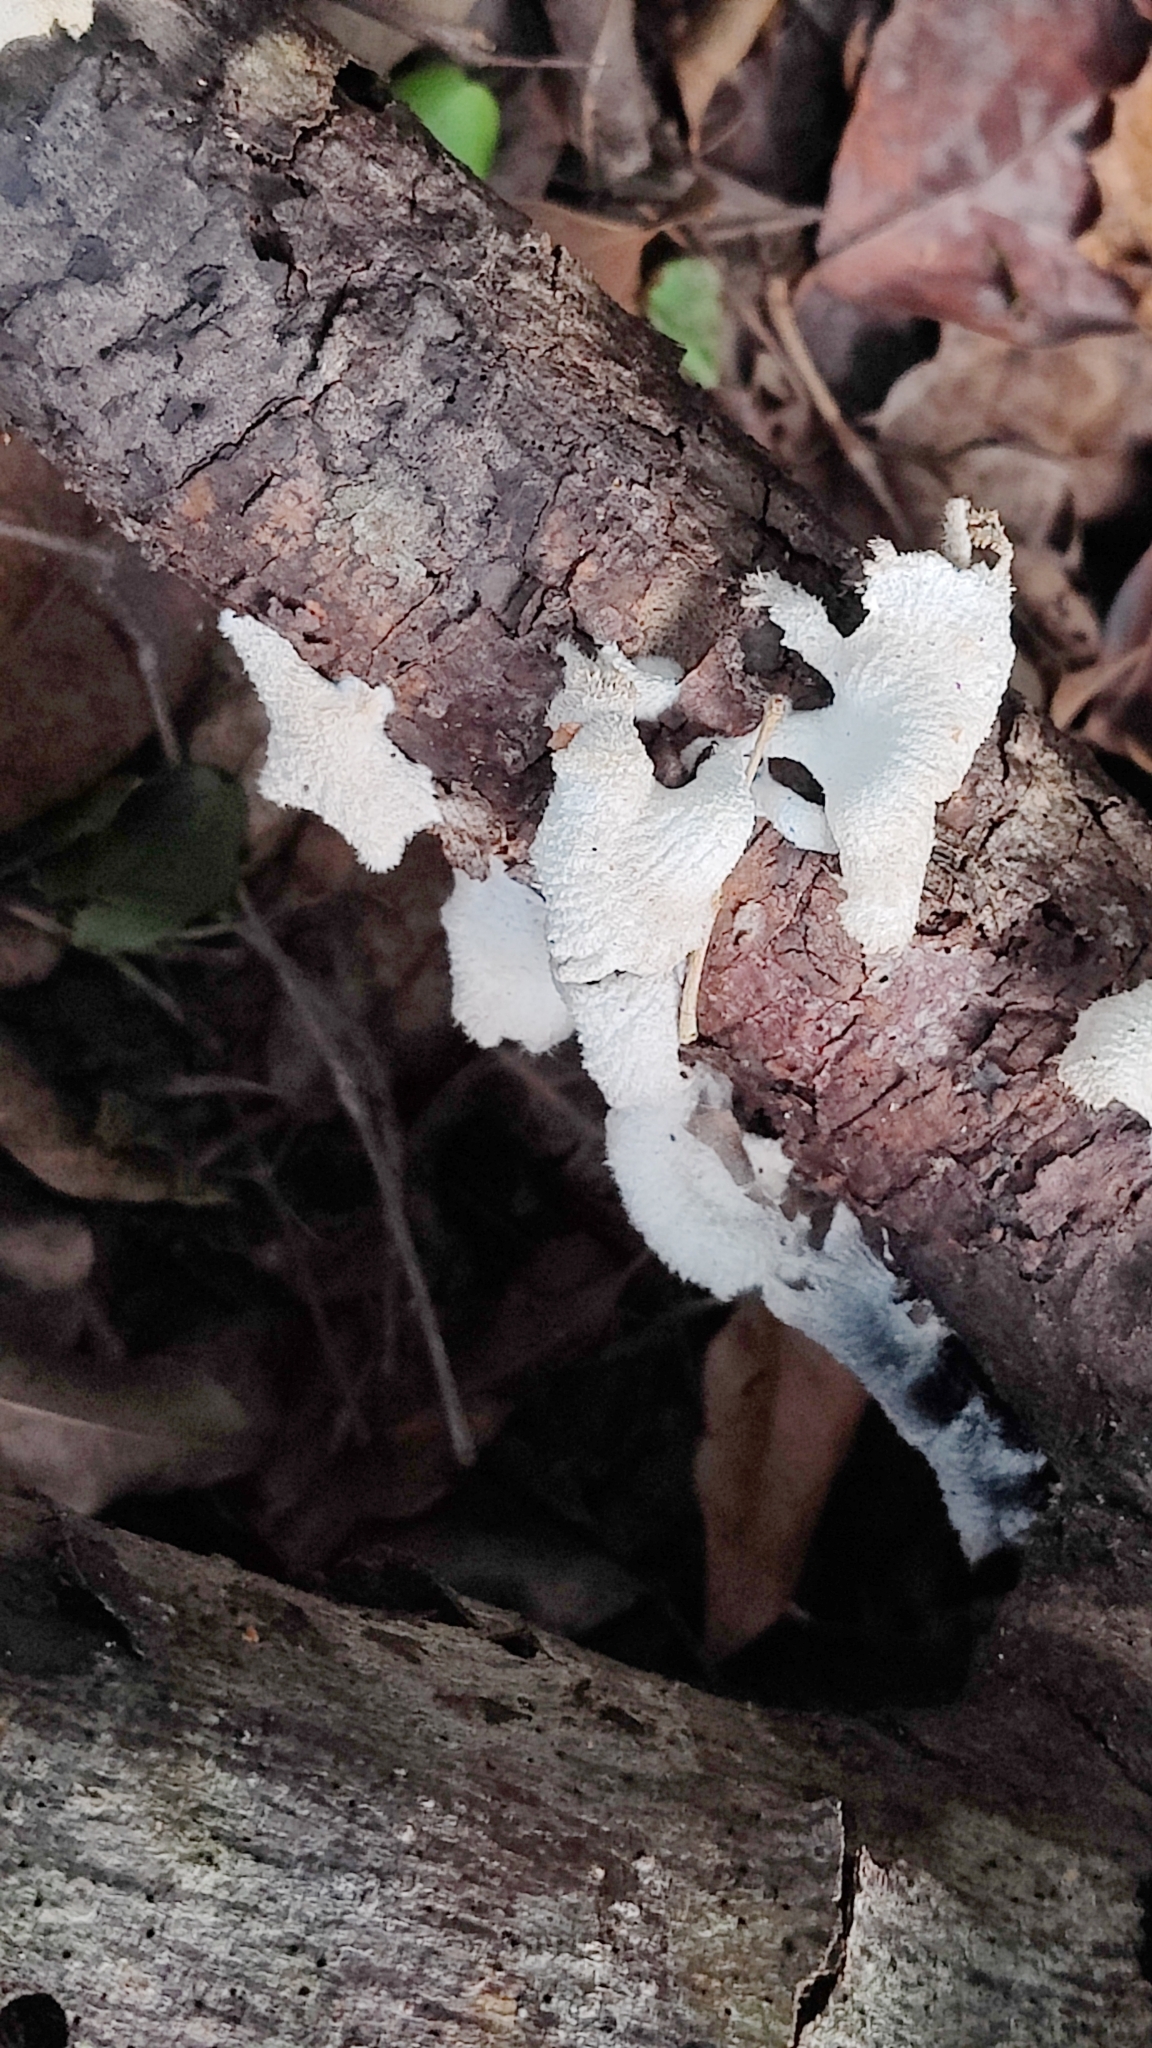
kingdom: Fungi
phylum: Basidiomycota
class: Agaricomycetes
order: Agaricales
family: Schizophyllaceae
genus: Schizophyllum
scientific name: Schizophyllum commune
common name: Common porecrust
